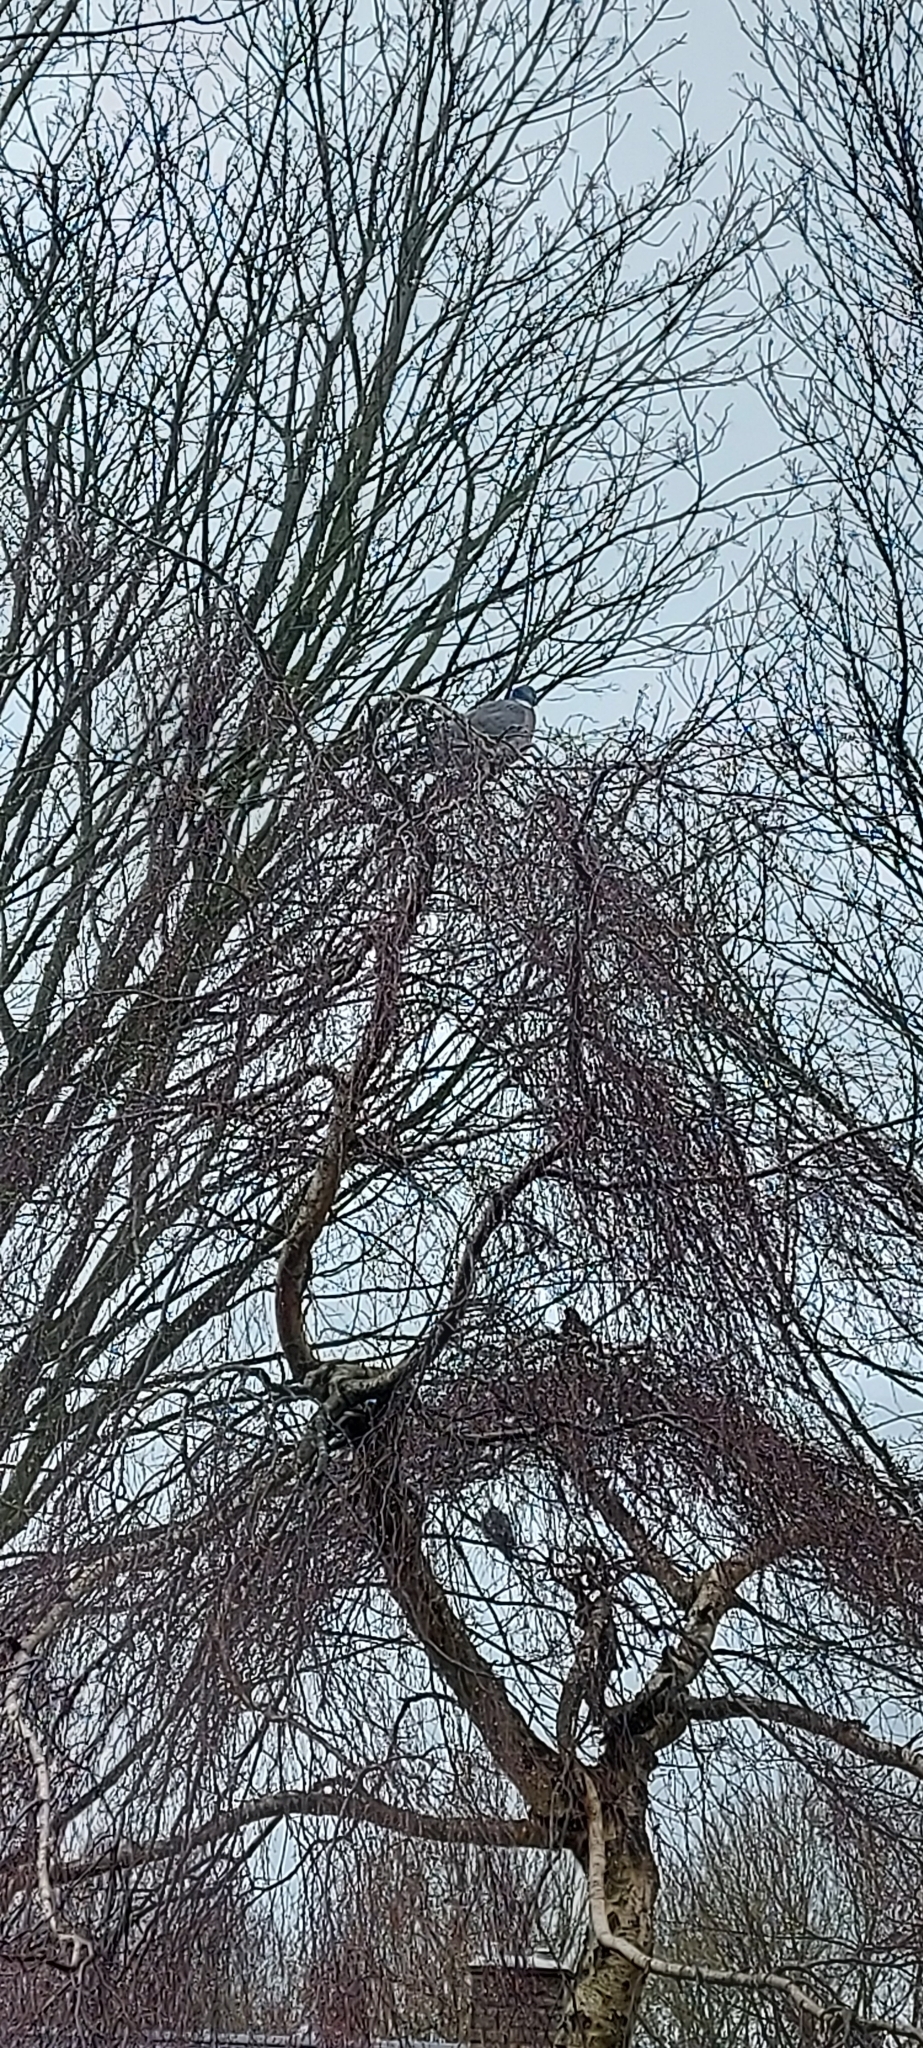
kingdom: Animalia
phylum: Chordata
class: Aves
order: Columbiformes
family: Columbidae
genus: Columba
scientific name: Columba palumbus
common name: Common wood pigeon
